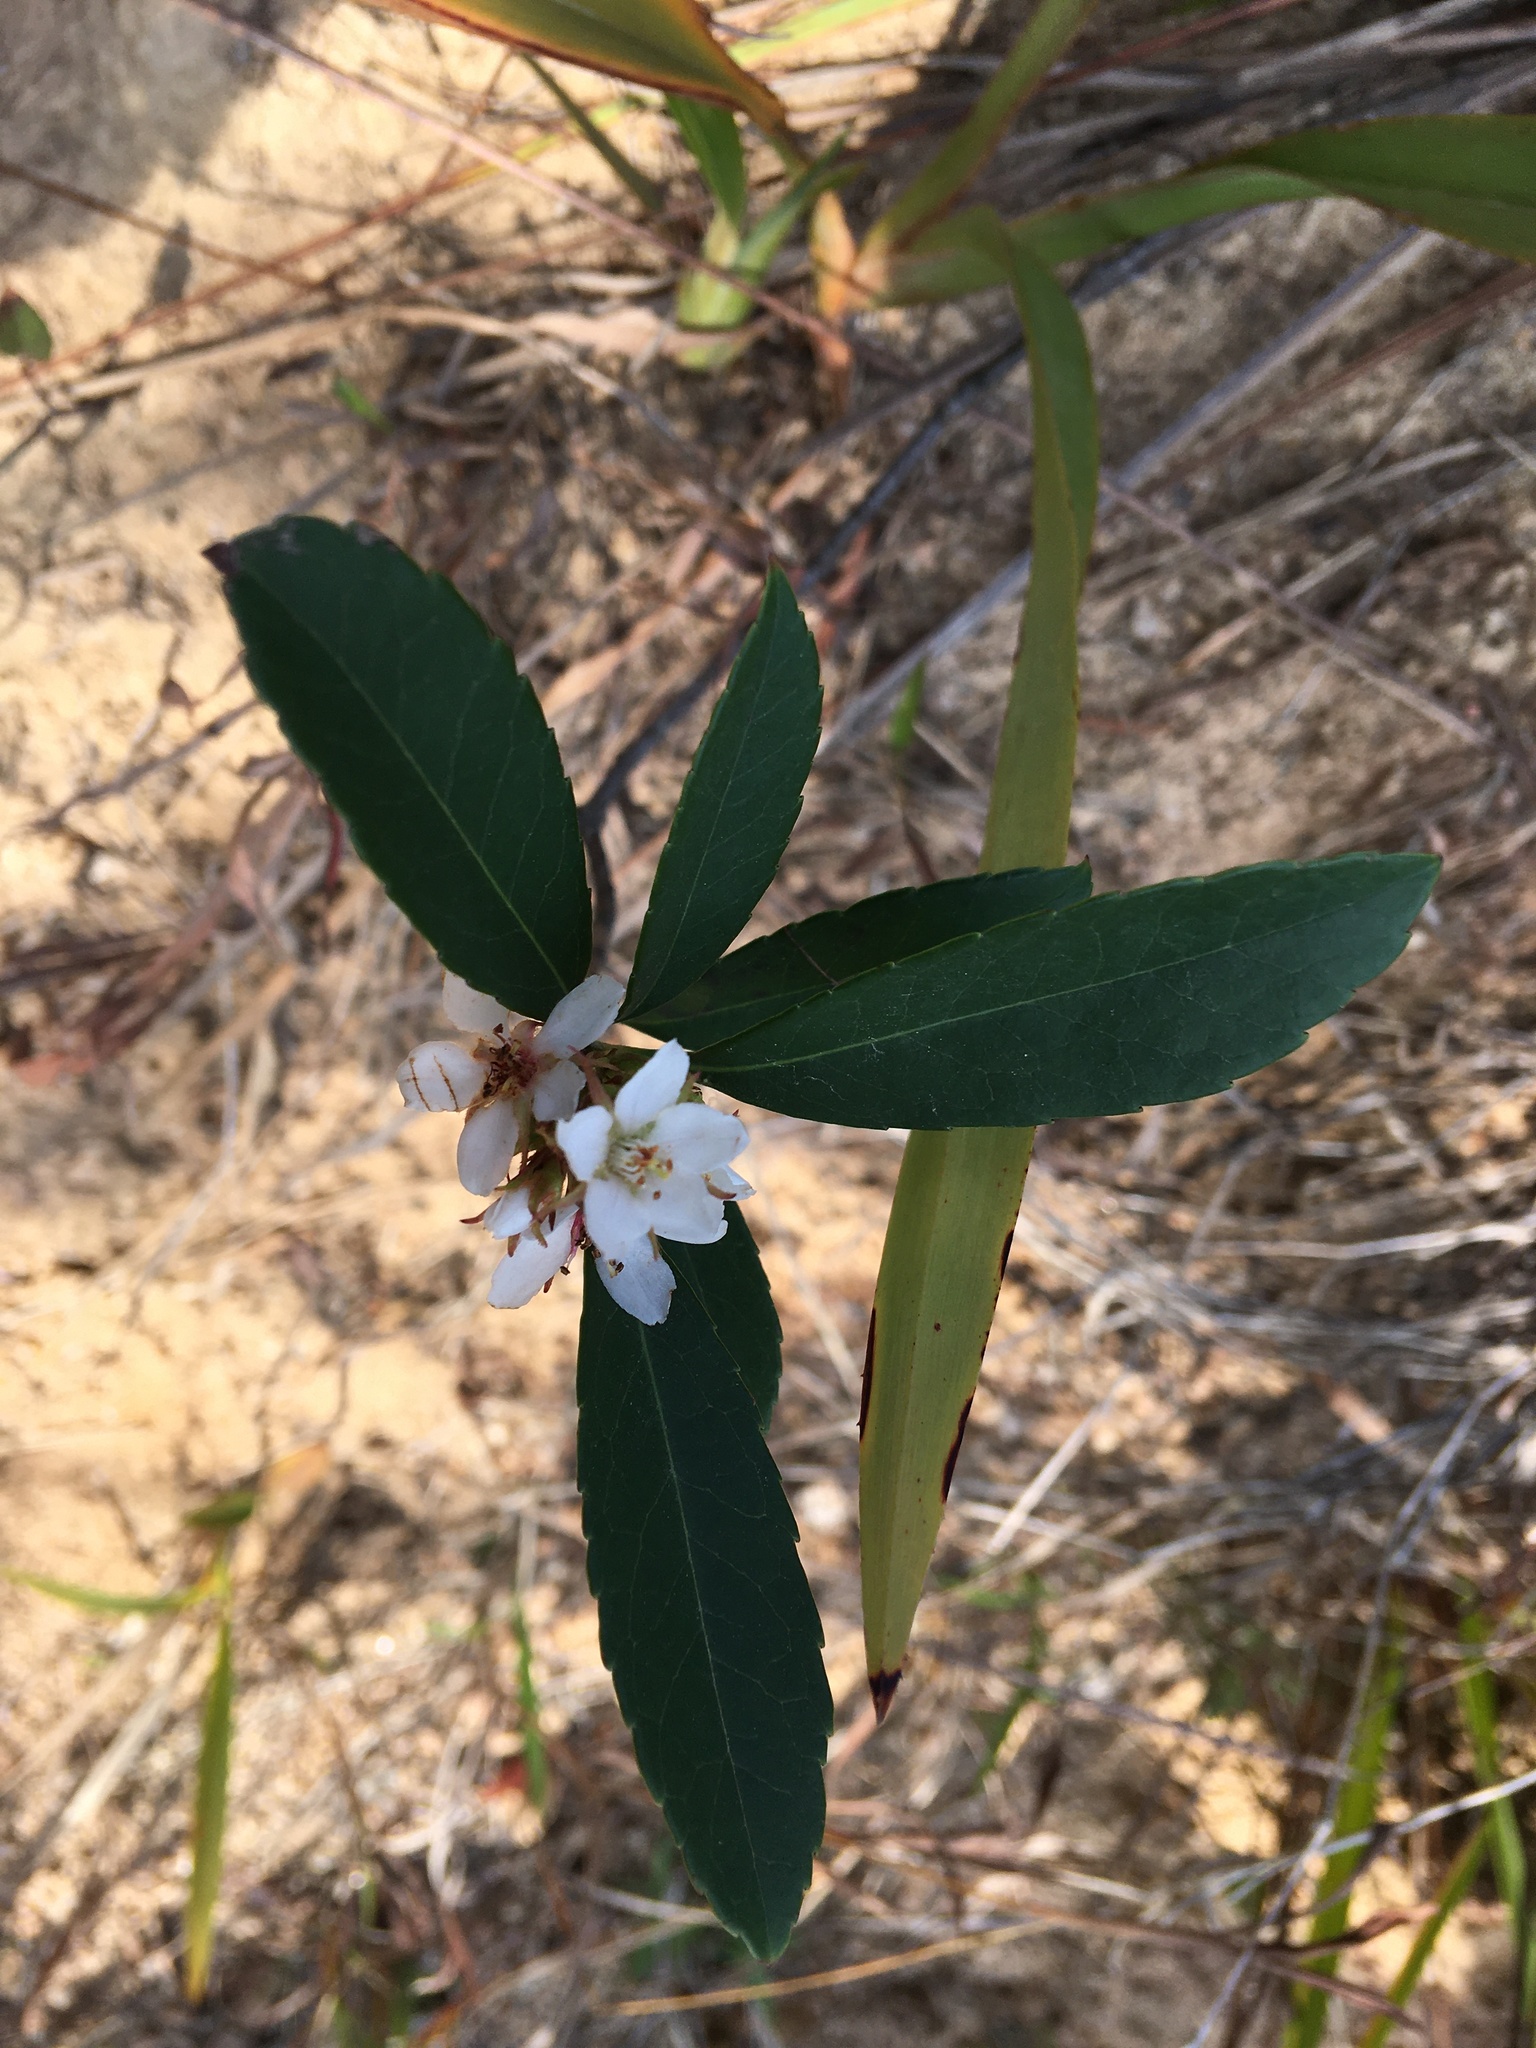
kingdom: Plantae
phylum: Tracheophyta
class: Magnoliopsida
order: Rosales
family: Rosaceae
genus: Rhaphiolepis
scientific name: Rhaphiolepis indica
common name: India-hawthorn
